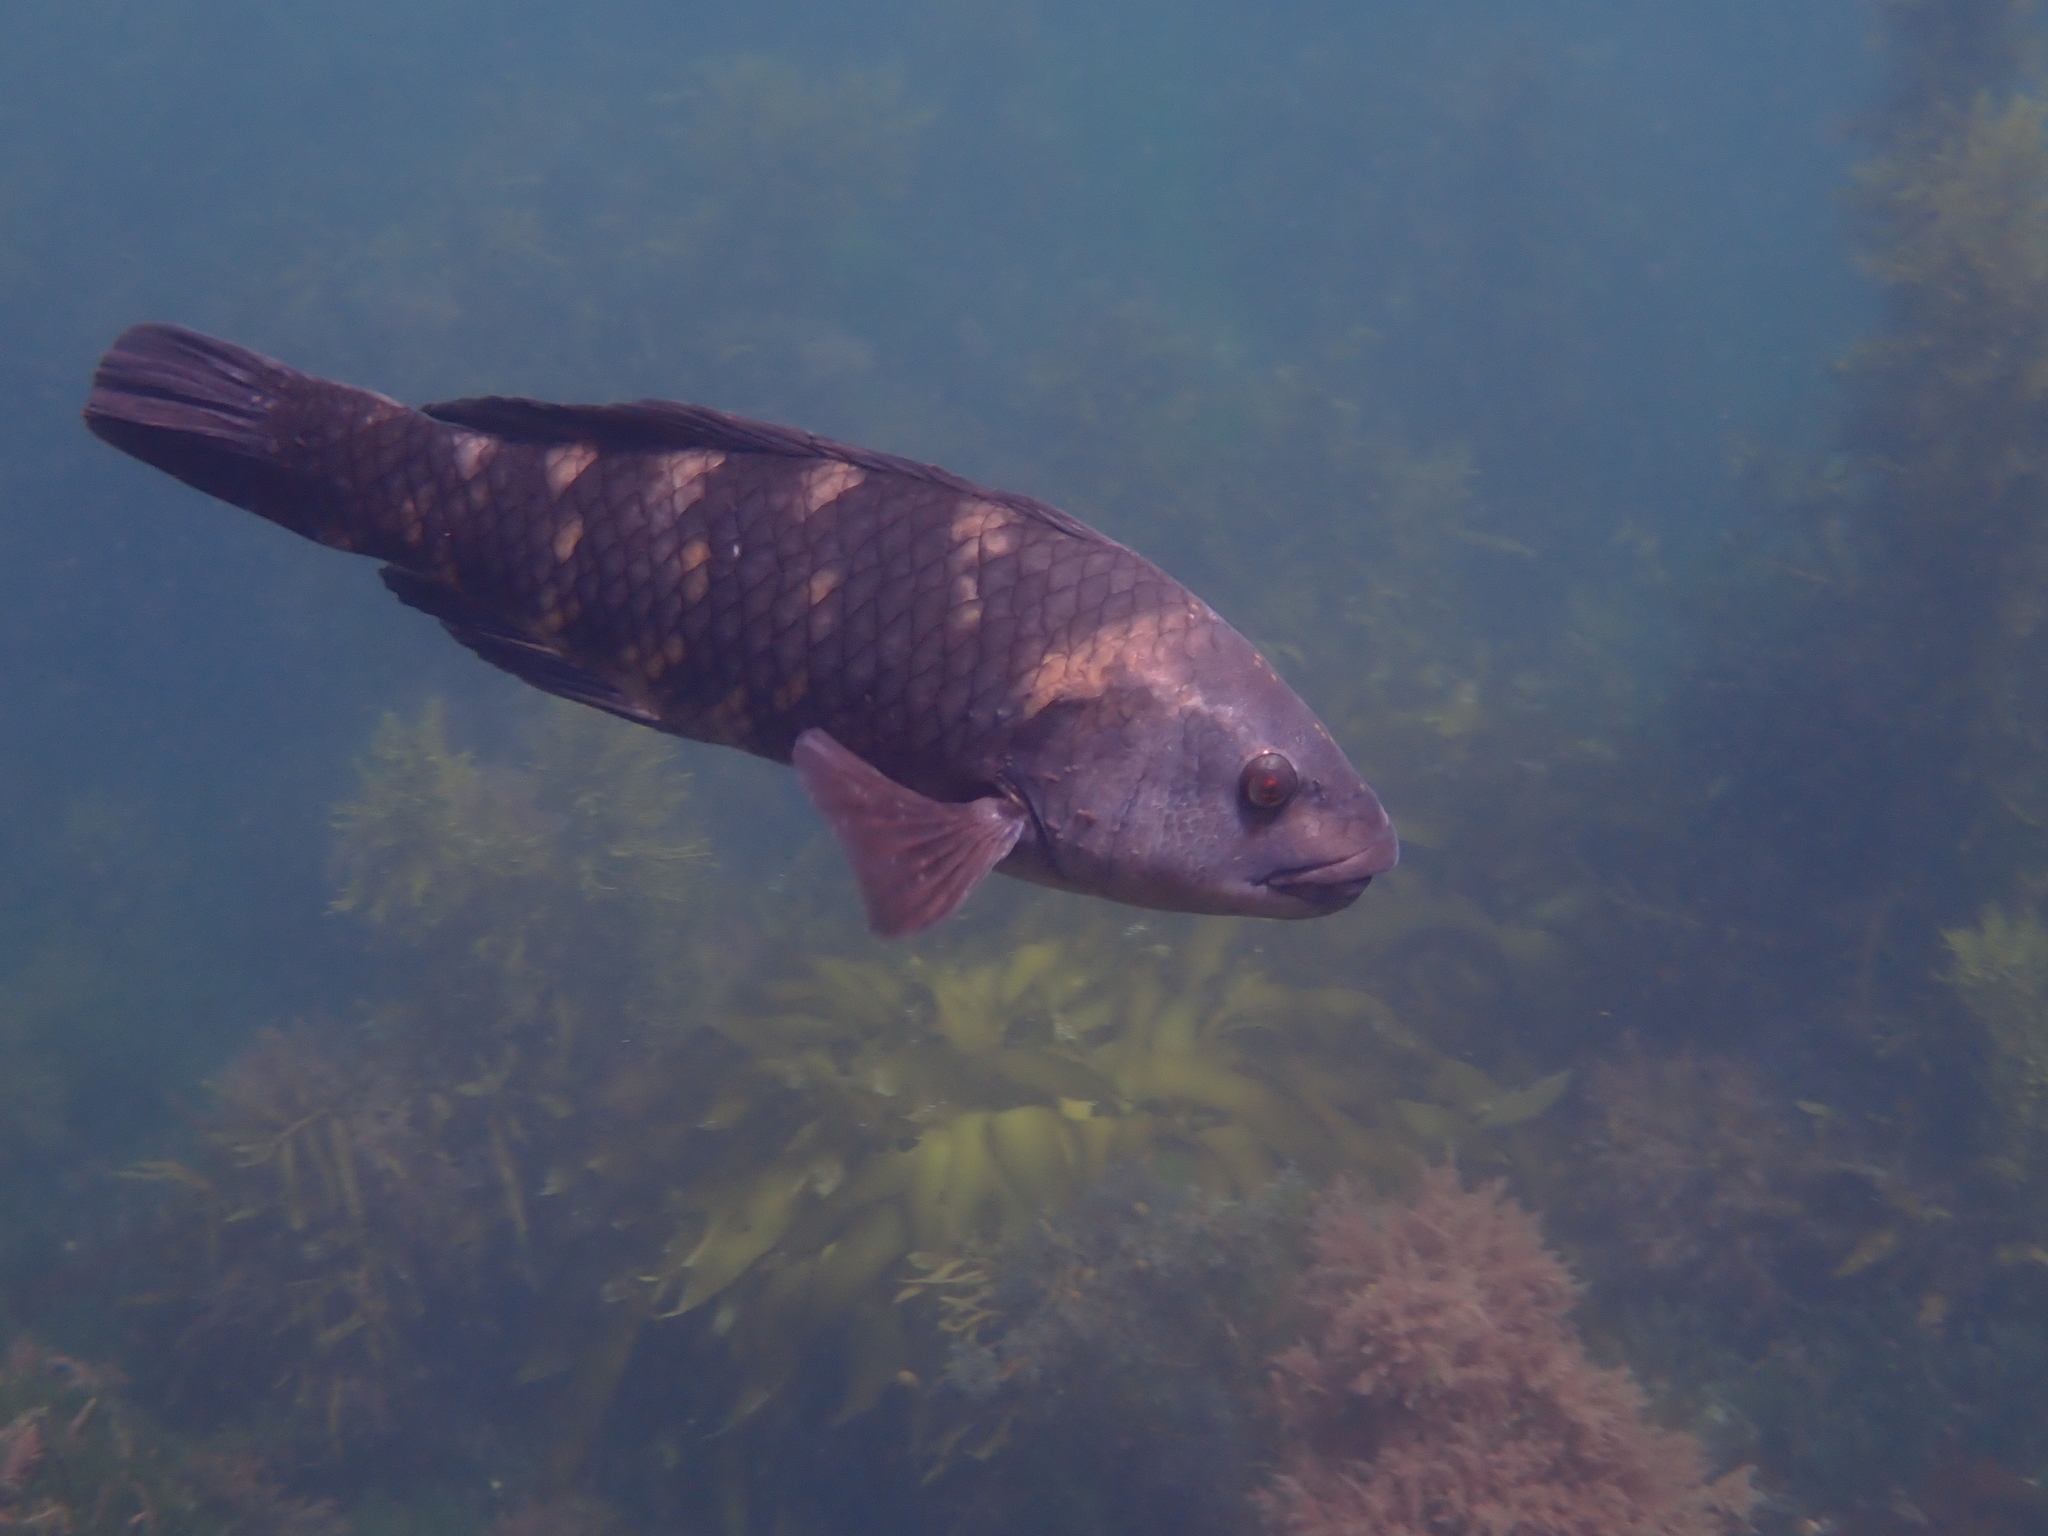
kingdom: Animalia
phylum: Chordata
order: Perciformes
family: Labridae
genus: Notolabrus
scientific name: Notolabrus fucicola
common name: Banded parrotfish
